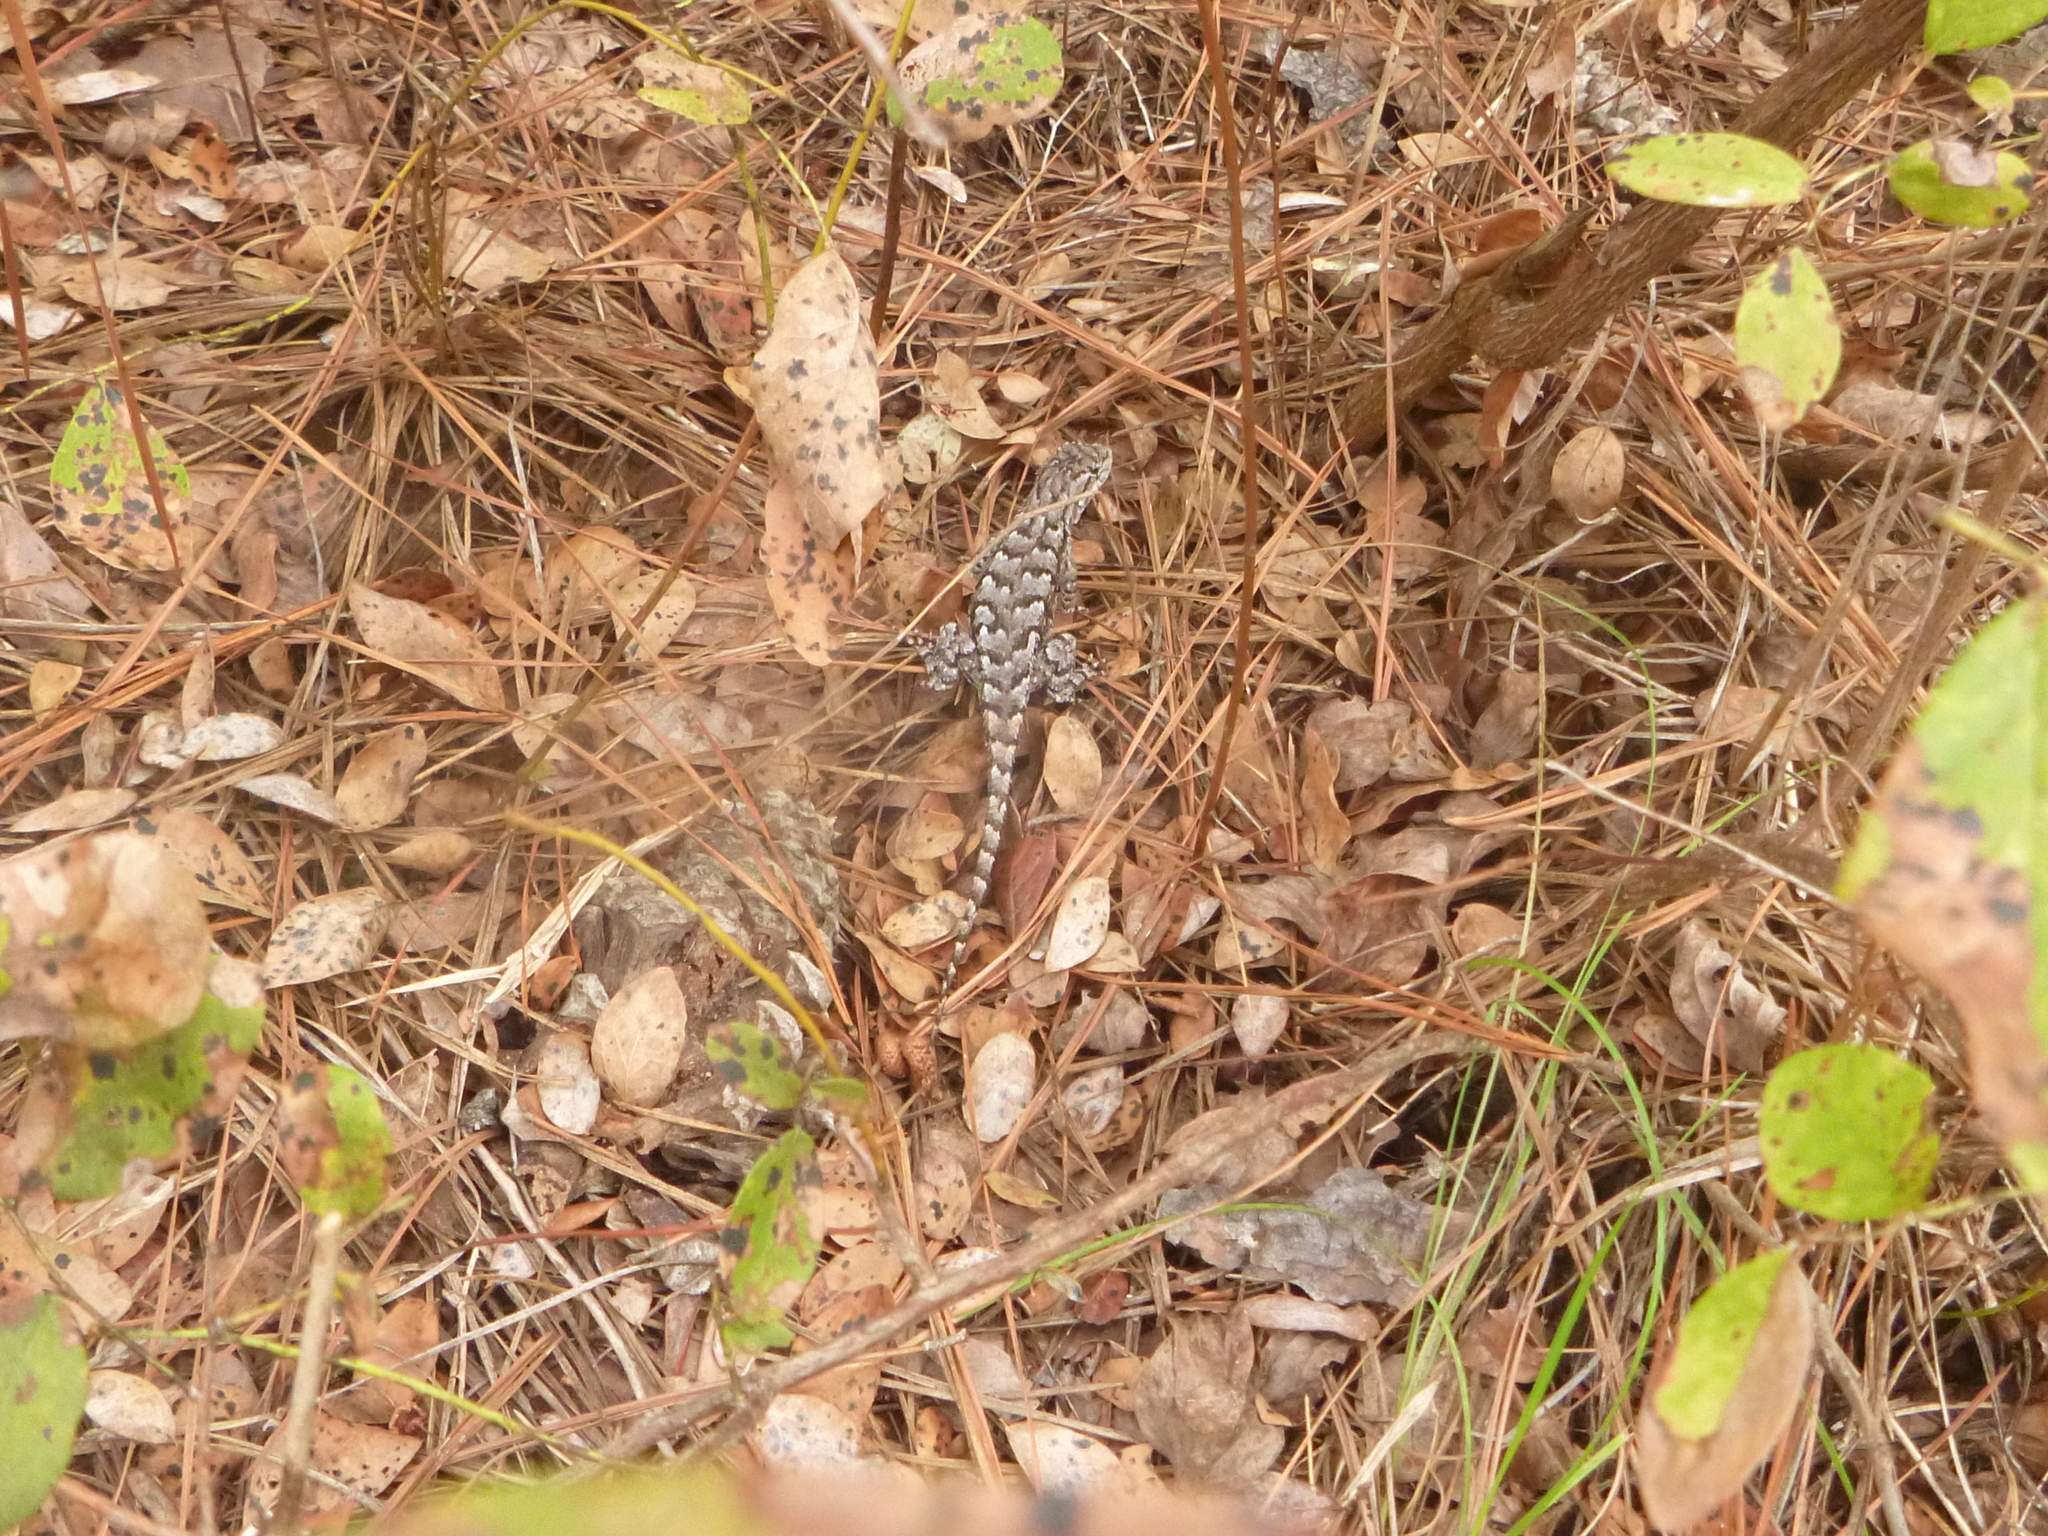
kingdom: Animalia
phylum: Chordata
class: Squamata
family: Phrynosomatidae
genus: Sceloporus
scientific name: Sceloporus undulatus
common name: Eastern fence lizard
